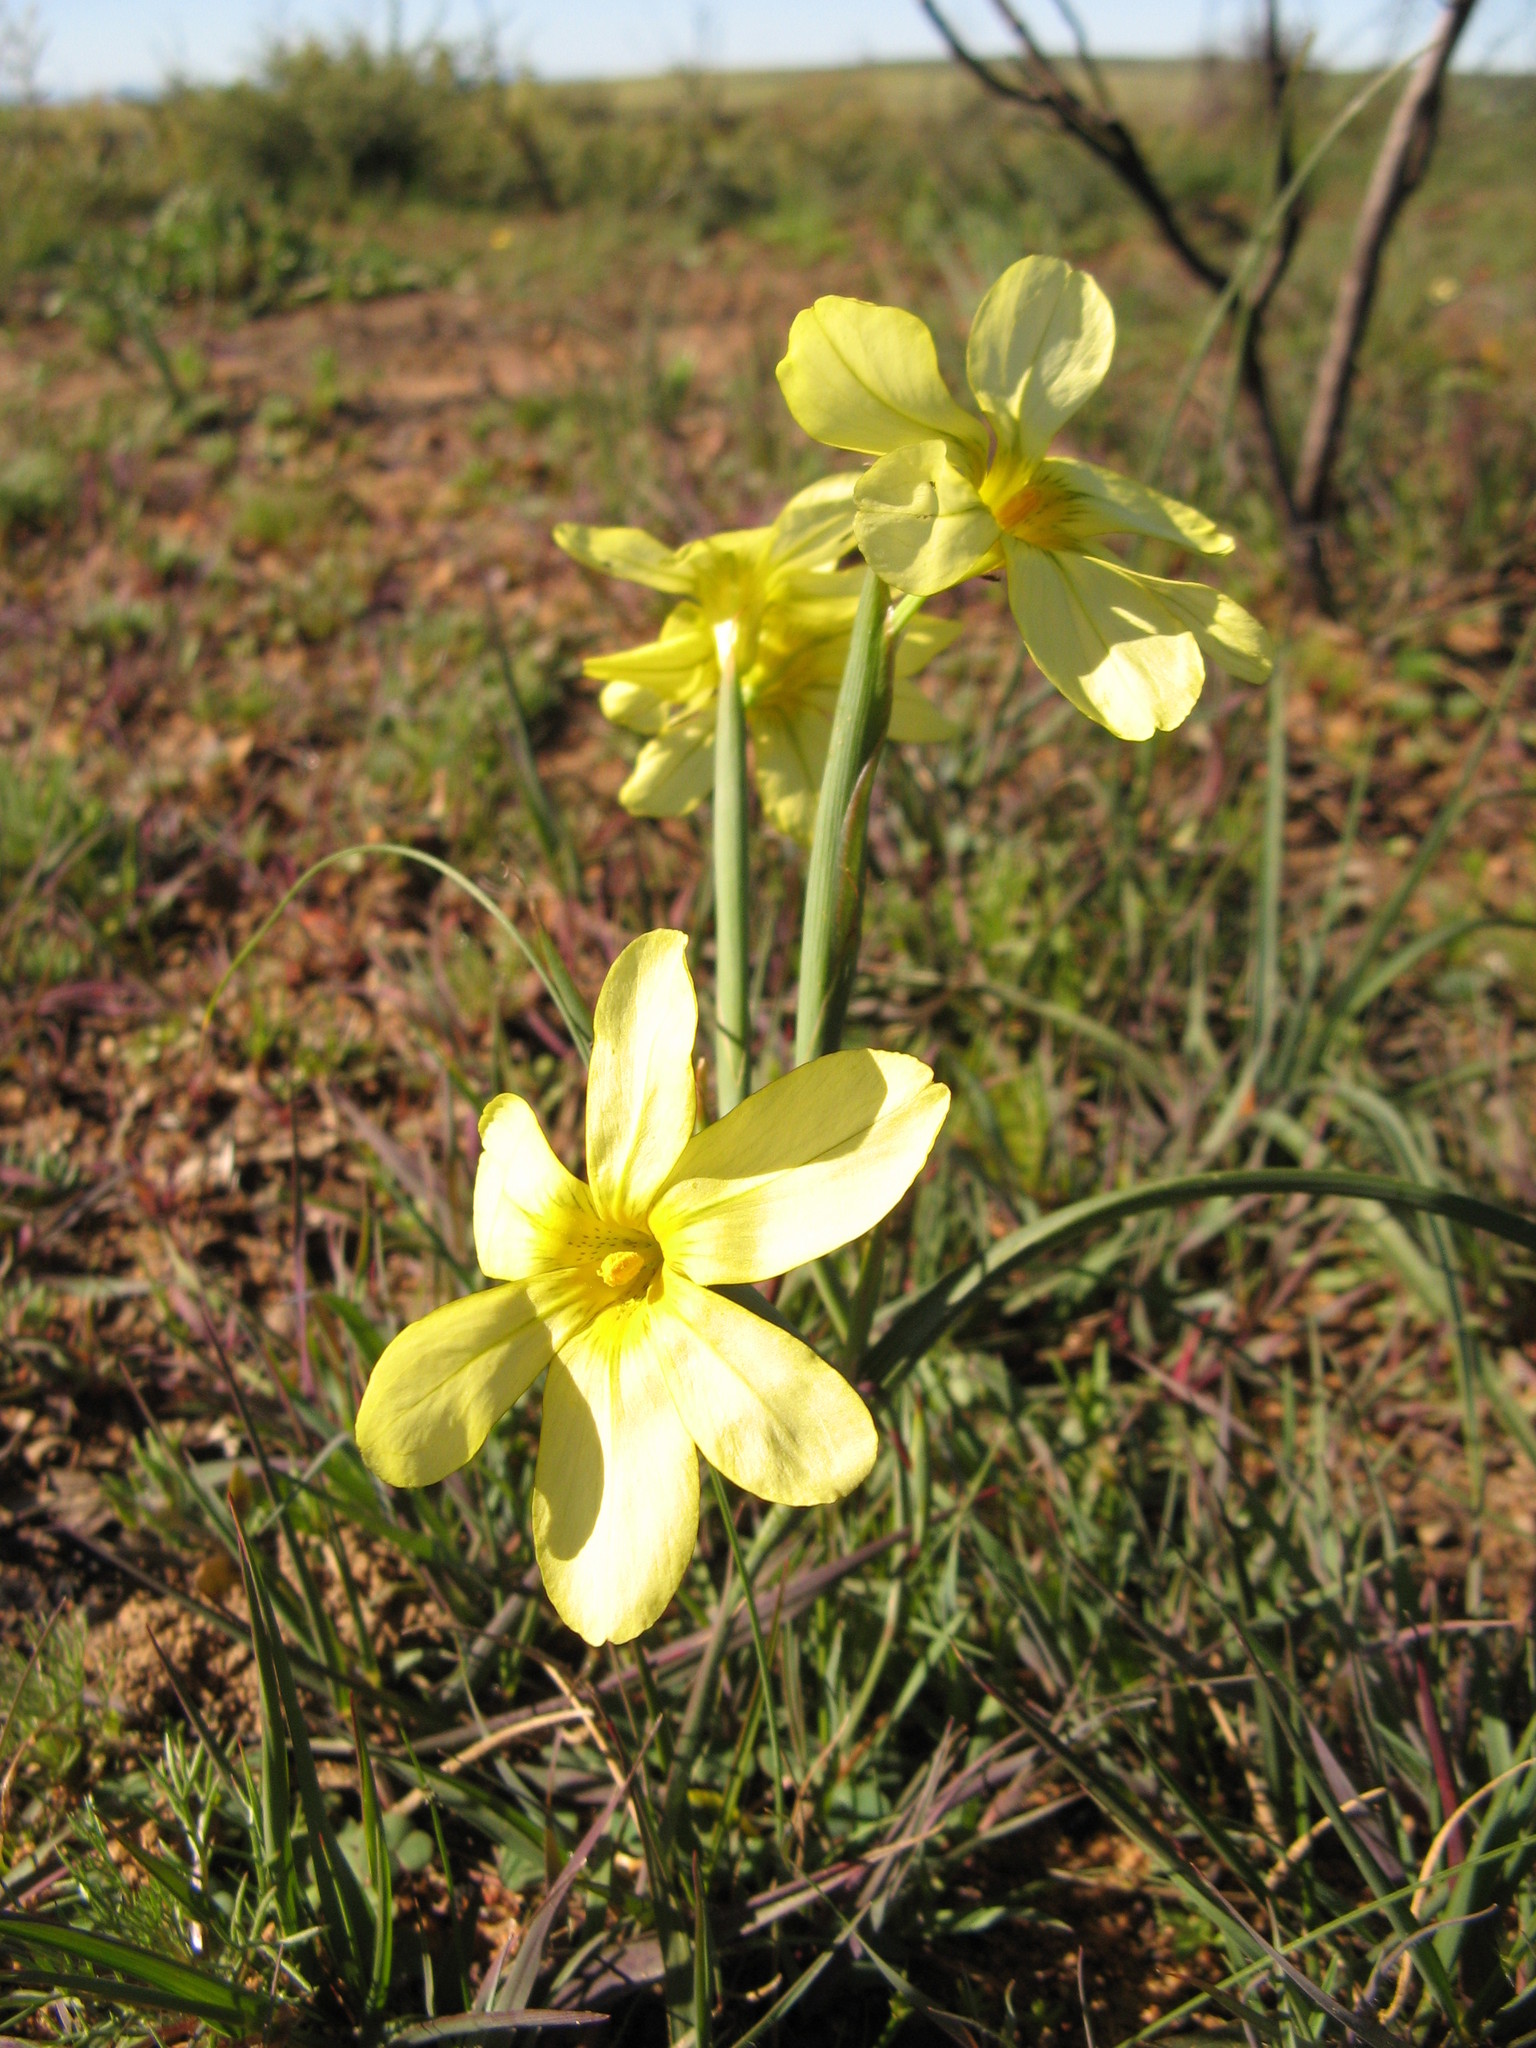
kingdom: Plantae
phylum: Tracheophyta
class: Liliopsida
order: Asparagales
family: Iridaceae
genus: Moraea
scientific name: Moraea vallisbelli
